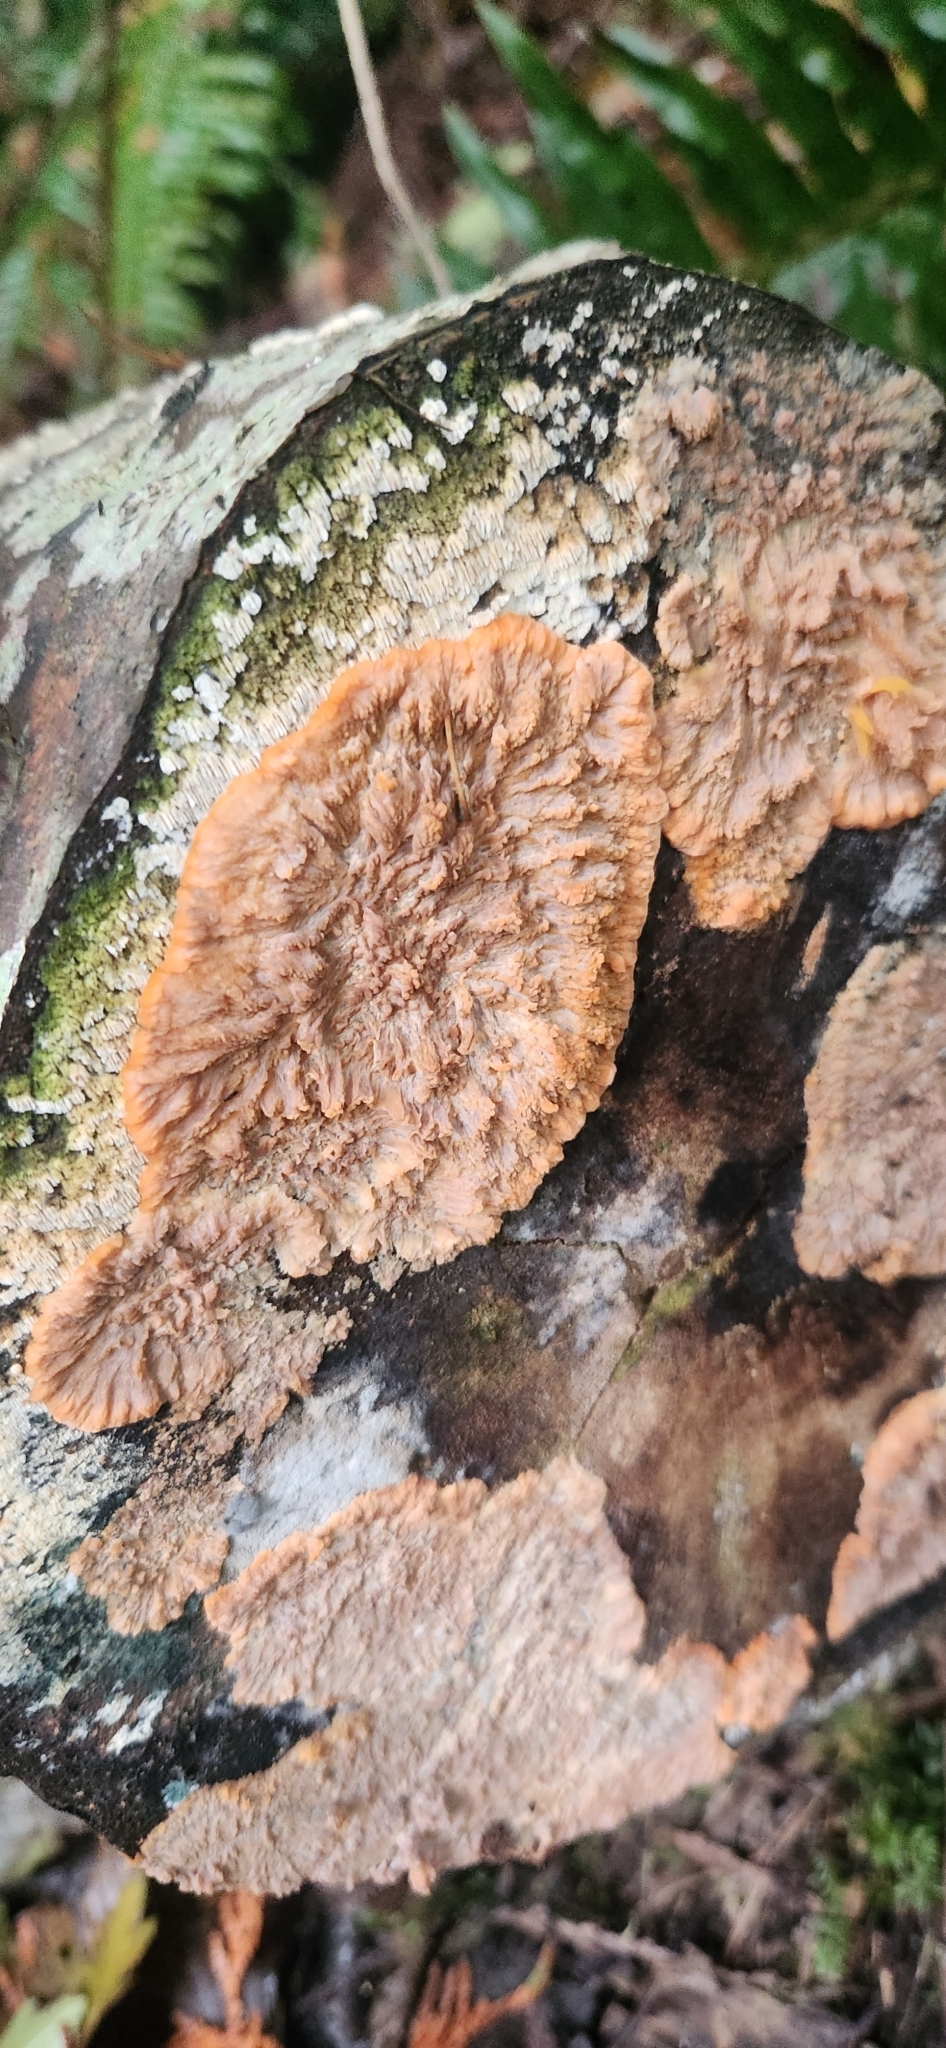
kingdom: Fungi
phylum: Basidiomycota
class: Agaricomycetes
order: Polyporales
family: Meruliaceae
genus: Phlebia
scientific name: Phlebia radiata
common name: Wrinkled crust
